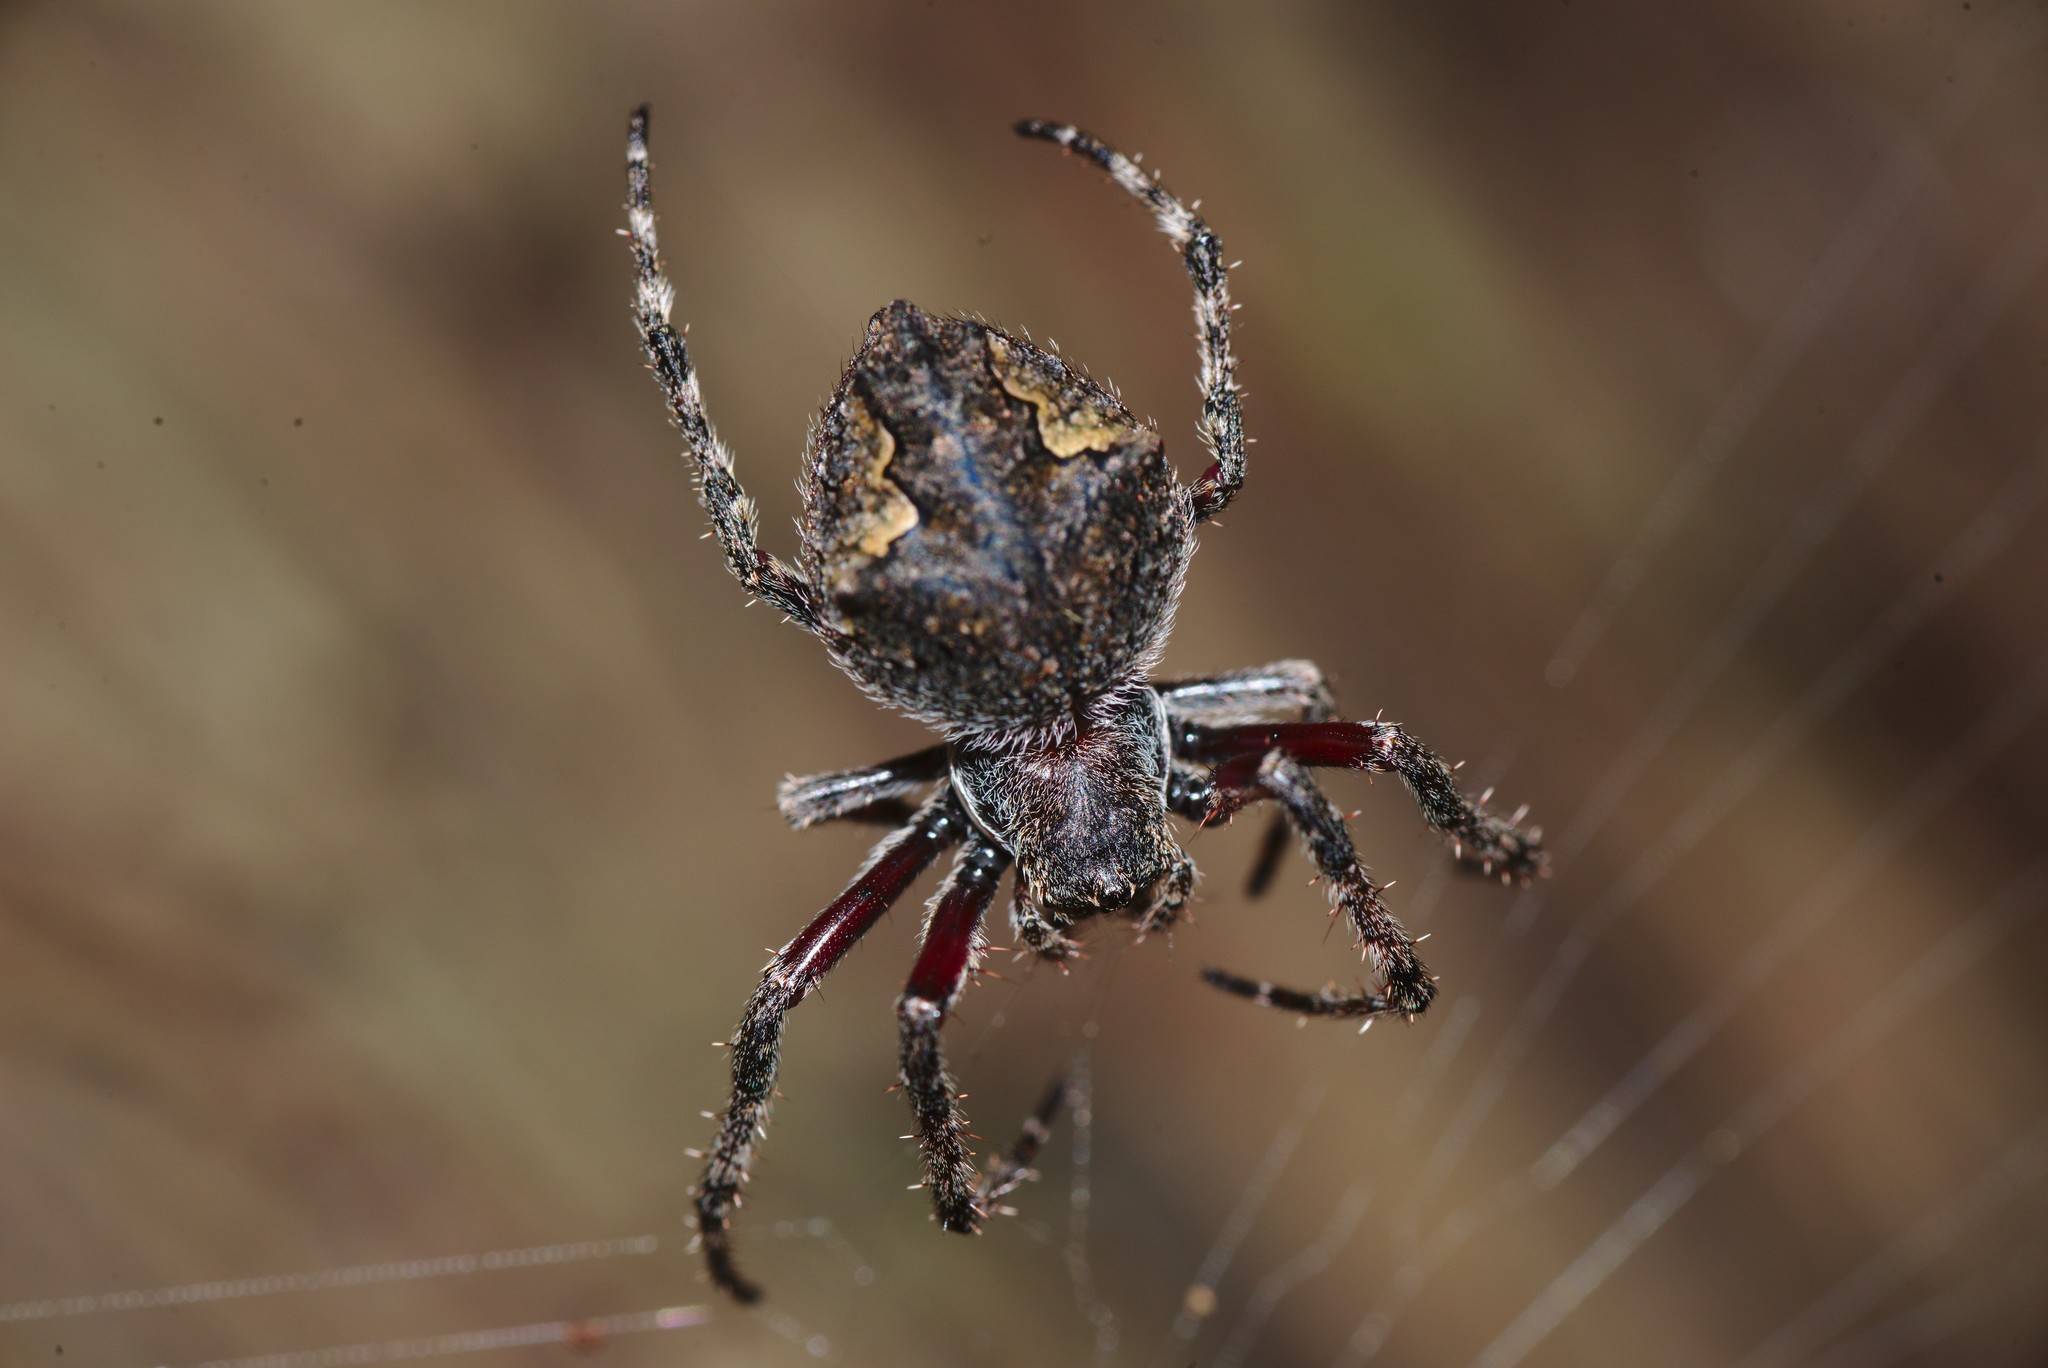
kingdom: Animalia
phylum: Arthropoda
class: Arachnida
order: Araneae
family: Araneidae
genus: Eriophora
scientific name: Eriophora pustulosa
